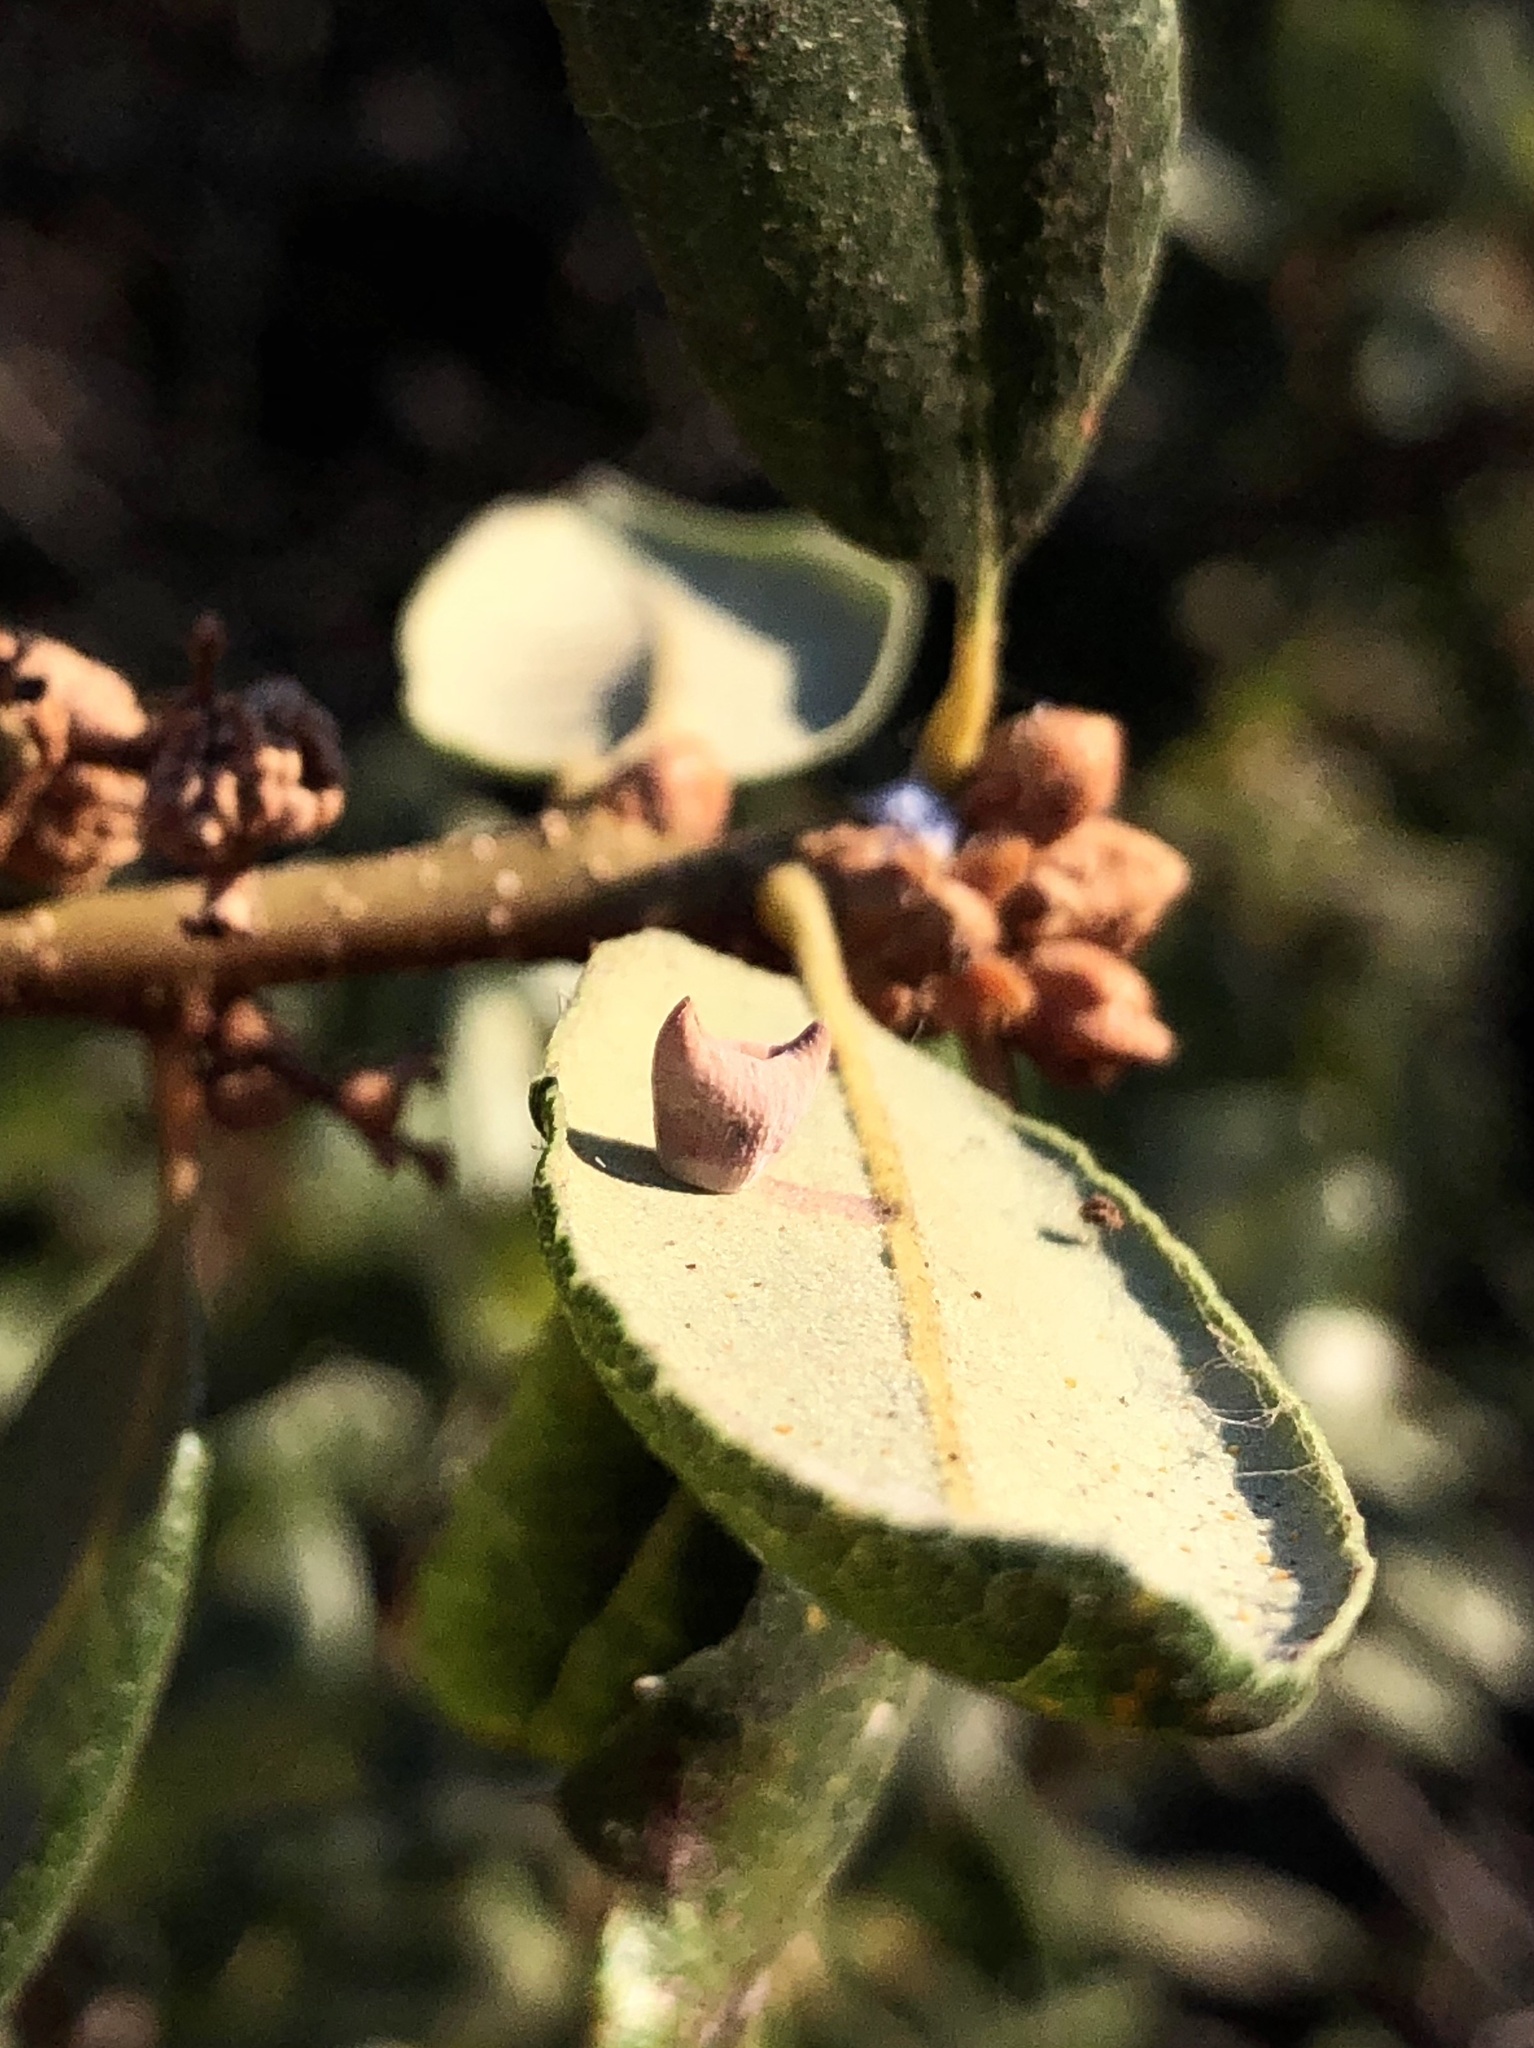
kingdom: Animalia
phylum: Arthropoda
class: Insecta
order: Hymenoptera
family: Cynipidae
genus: Andricus
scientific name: Andricus
